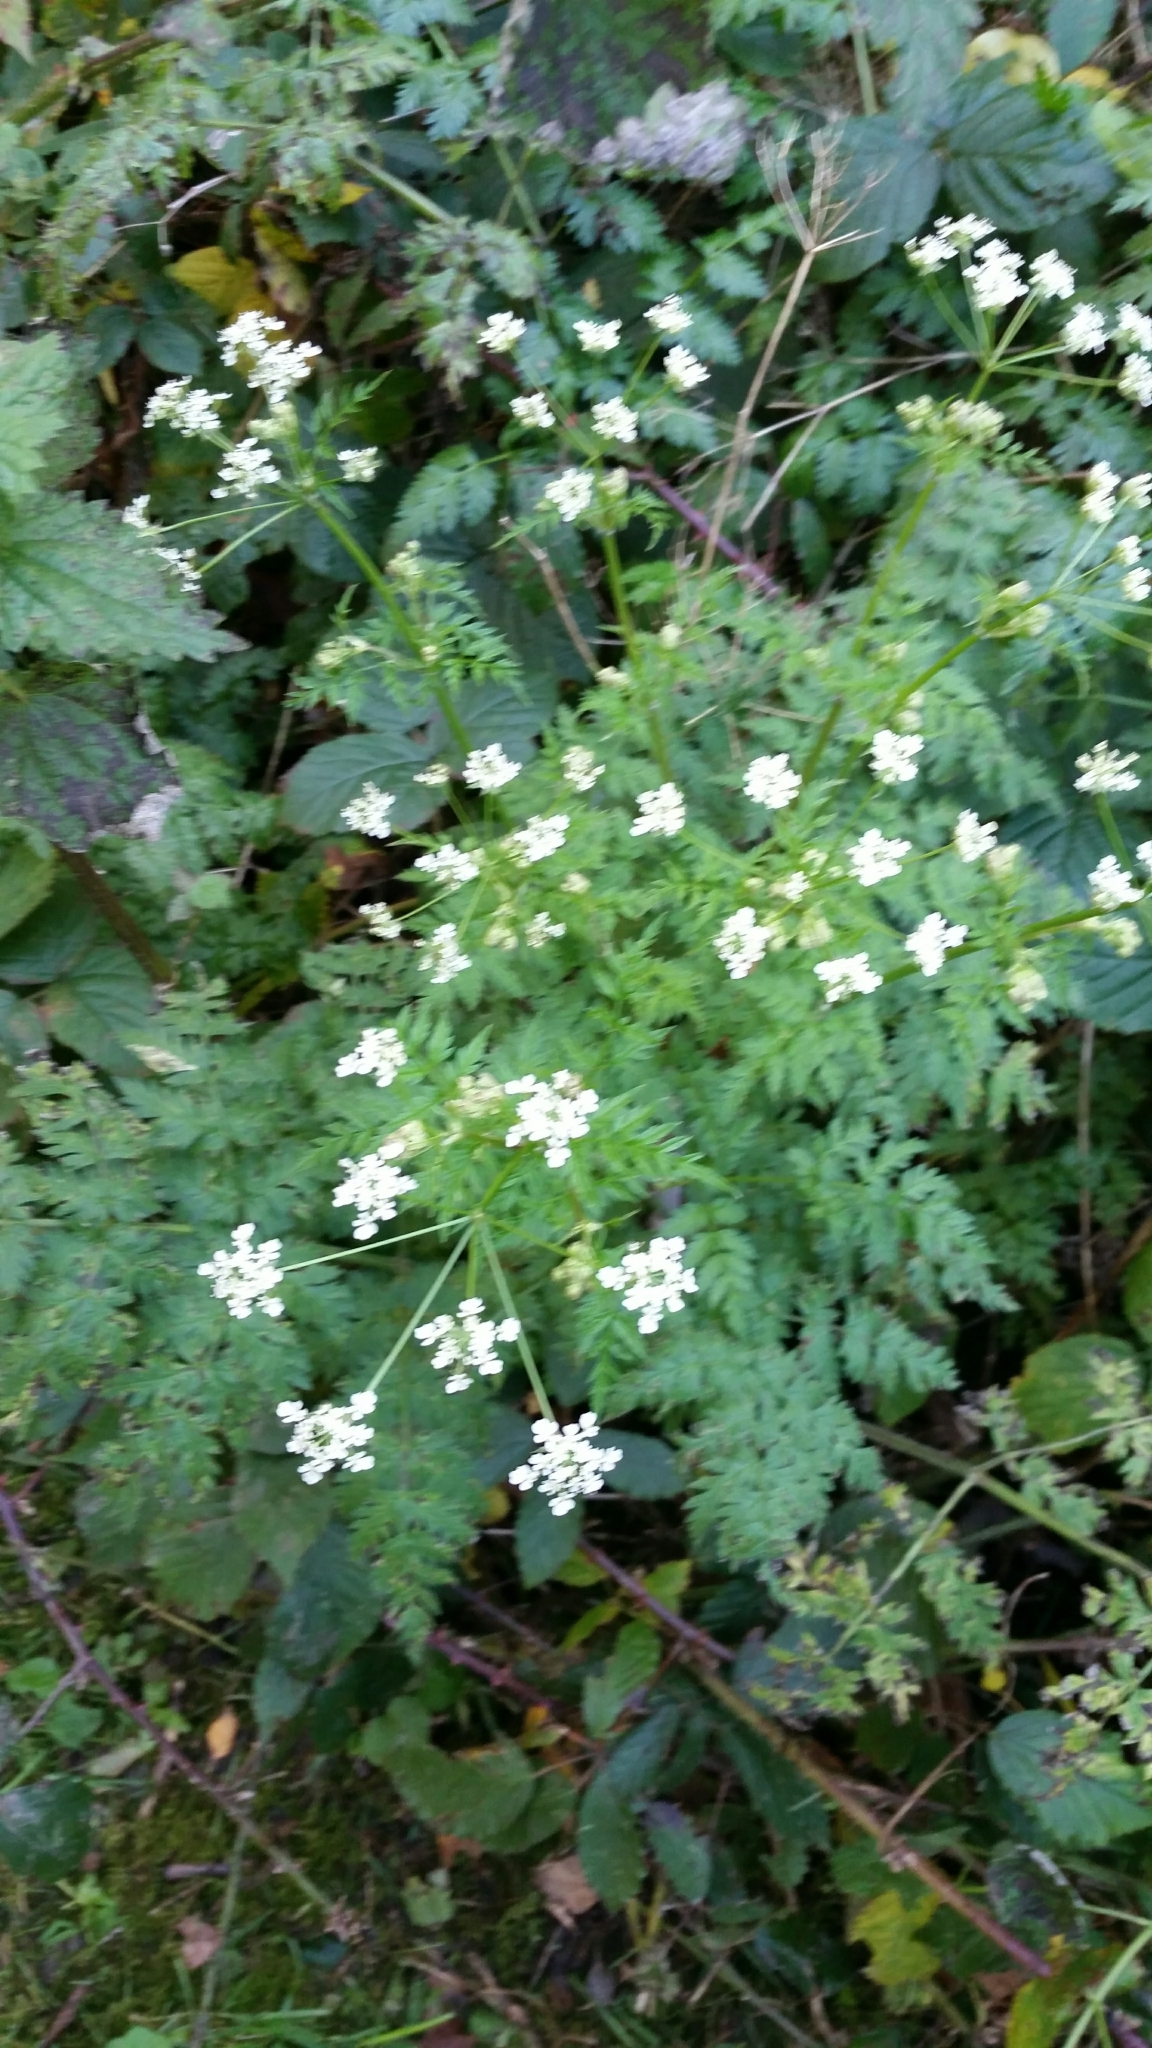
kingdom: Plantae
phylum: Tracheophyta
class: Magnoliopsida
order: Apiales
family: Apiaceae
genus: Anthriscus
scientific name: Anthriscus sylvestris
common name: Cow parsley
